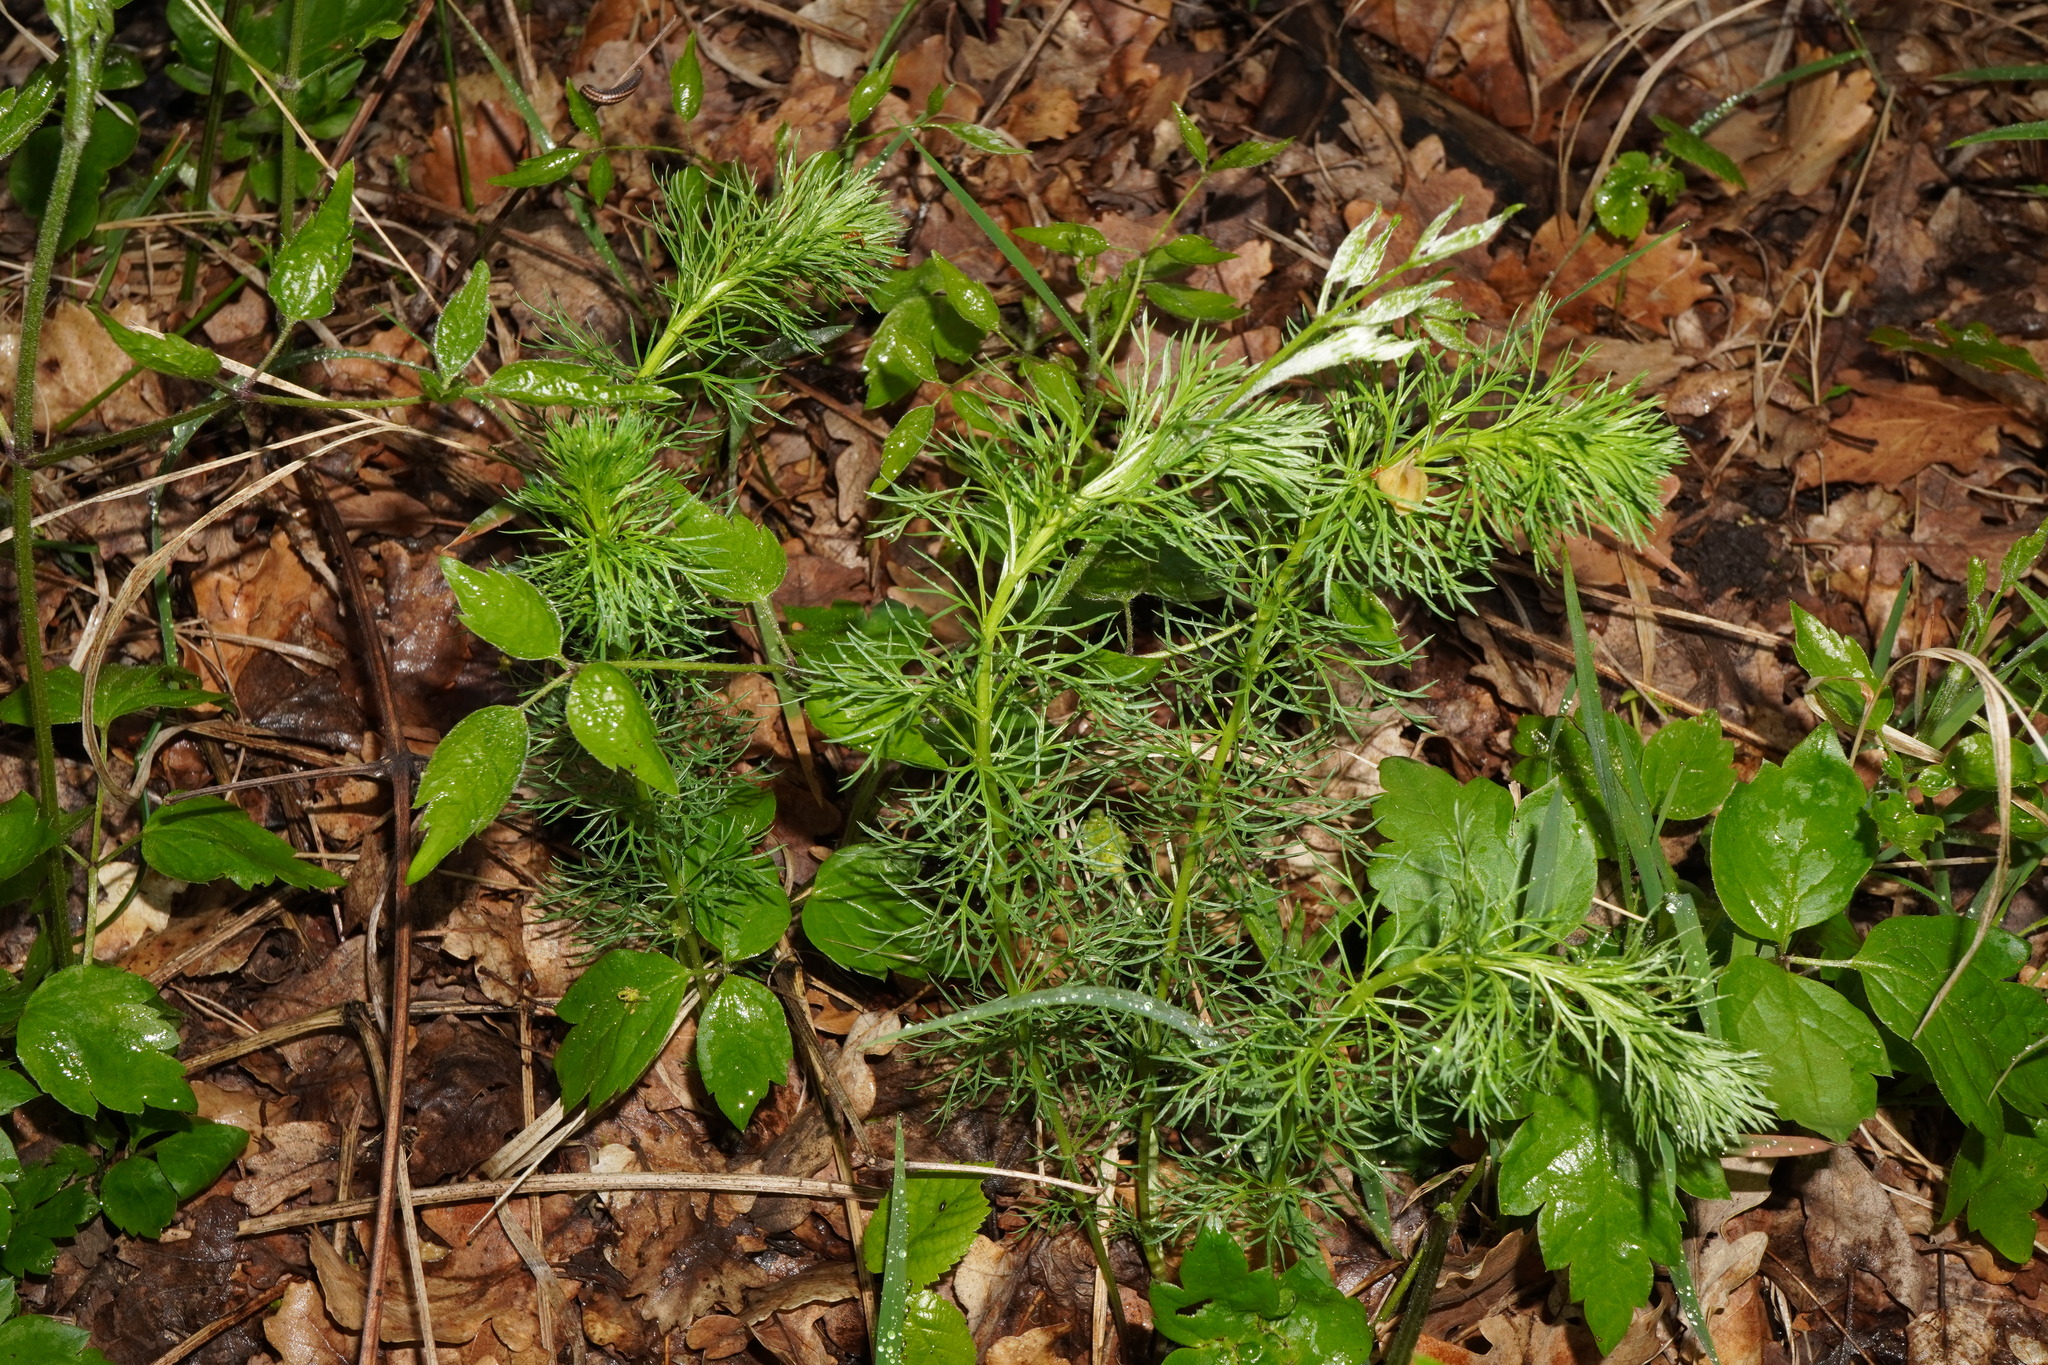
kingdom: Plantae
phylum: Tracheophyta
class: Magnoliopsida
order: Ranunculales
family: Ranunculaceae
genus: Adonis
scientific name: Adonis vernalis
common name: Yellow pheasants-eye
